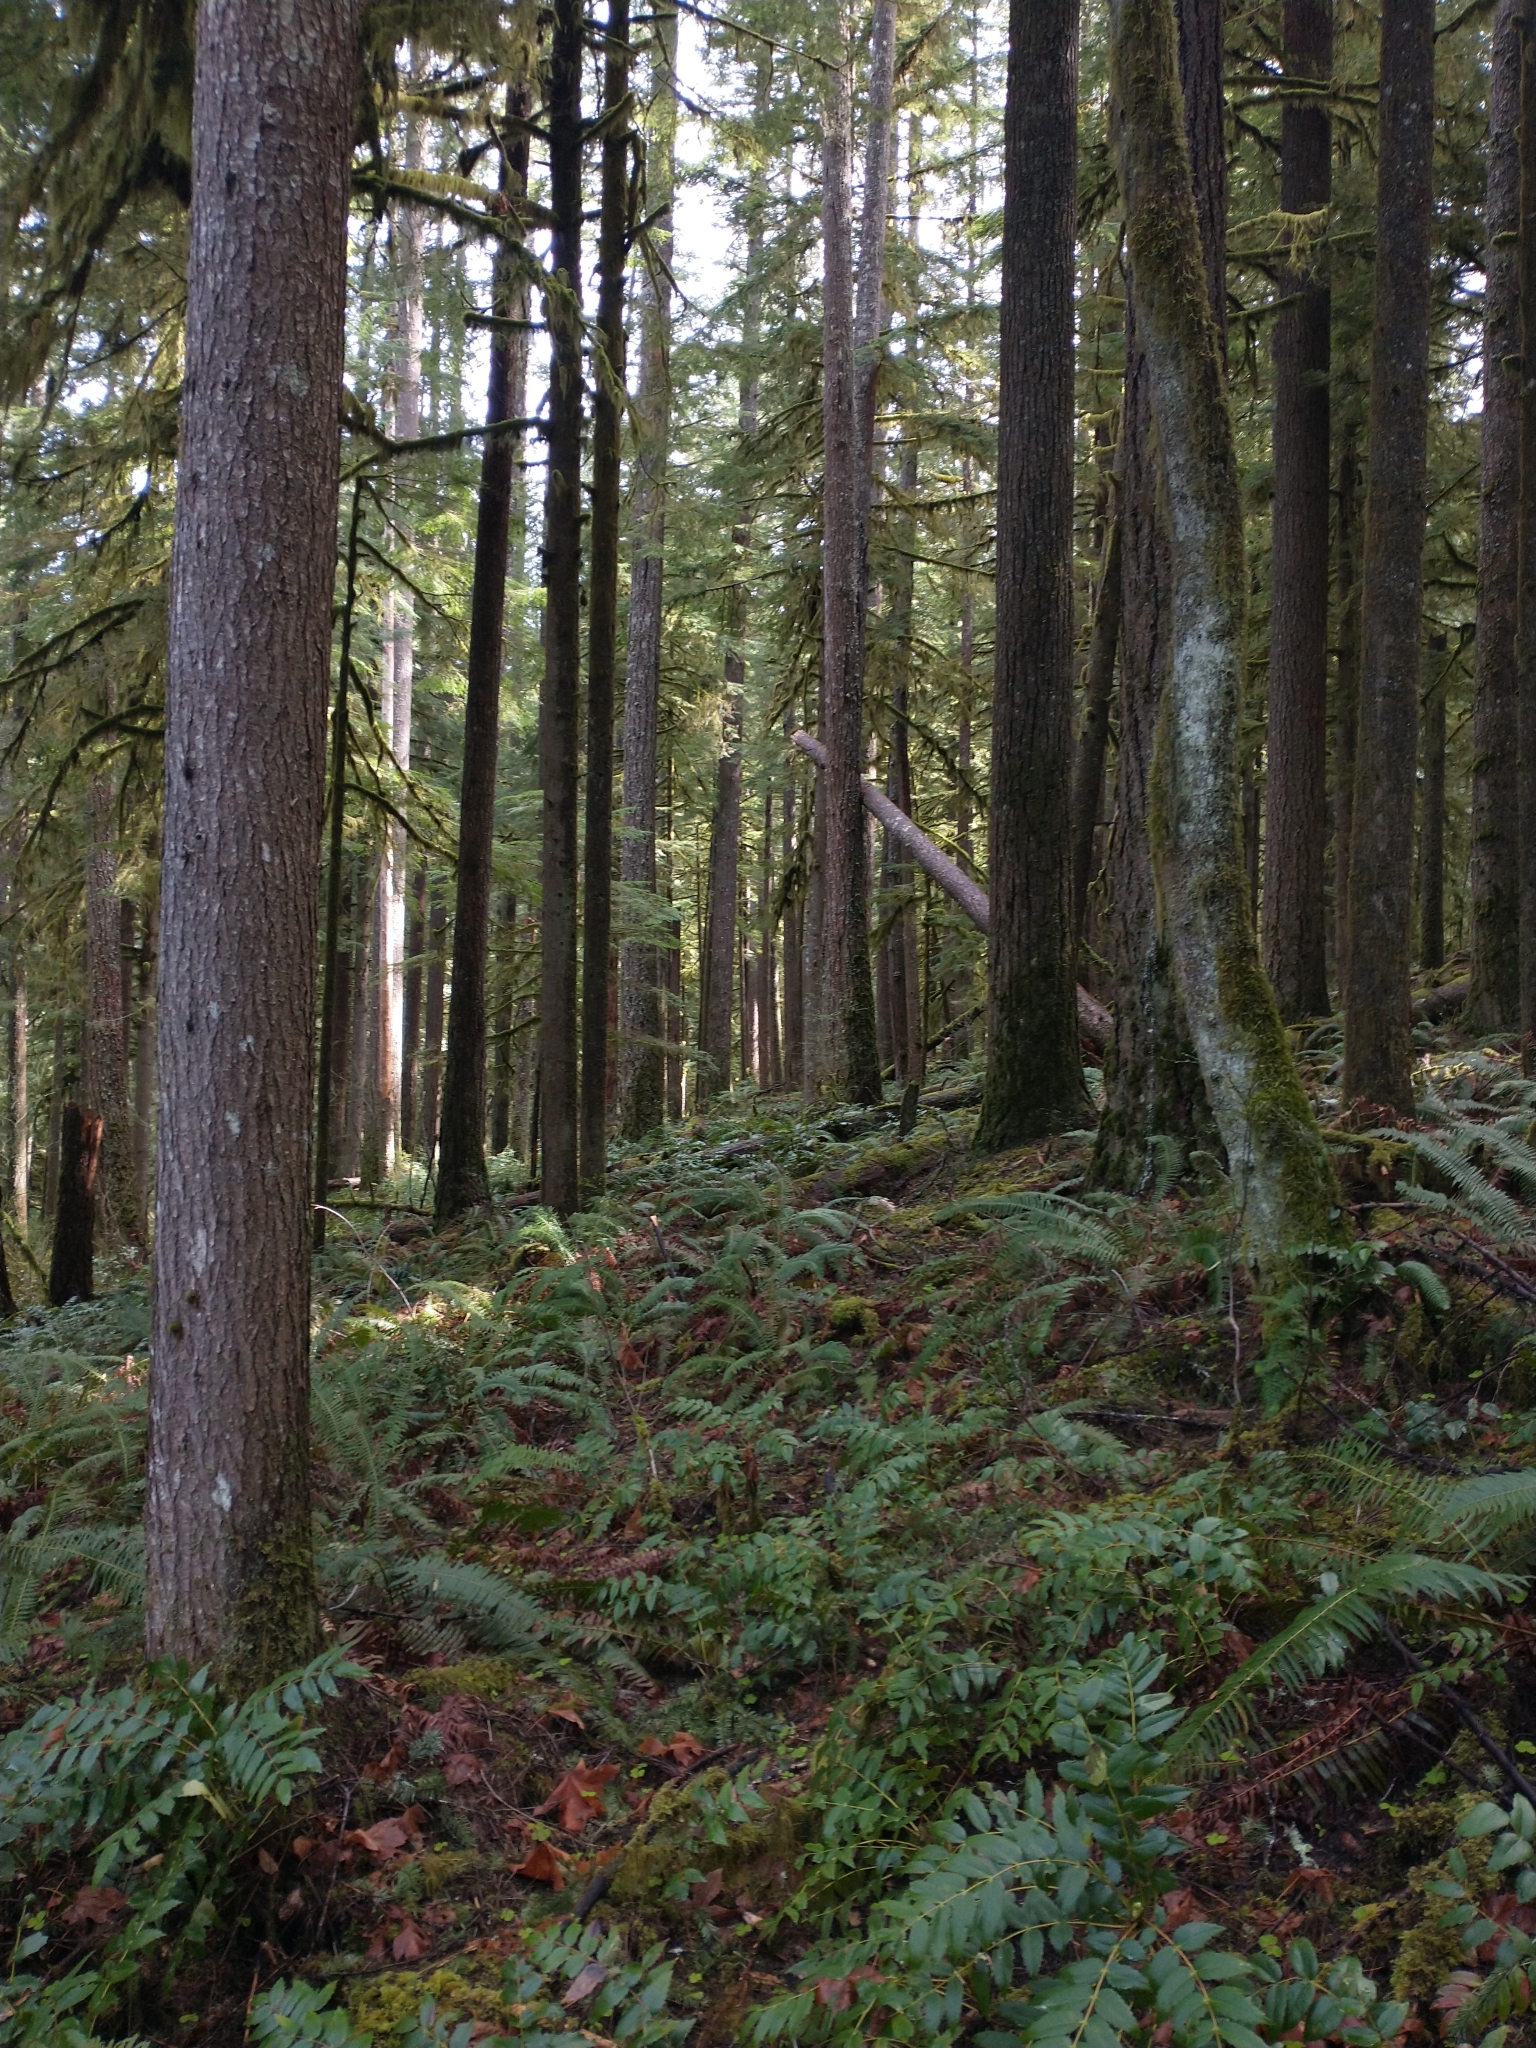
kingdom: Plantae
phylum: Tracheophyta
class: Polypodiopsida
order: Polypodiales
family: Dryopteridaceae
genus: Polystichum
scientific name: Polystichum munitum
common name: Western sword-fern
